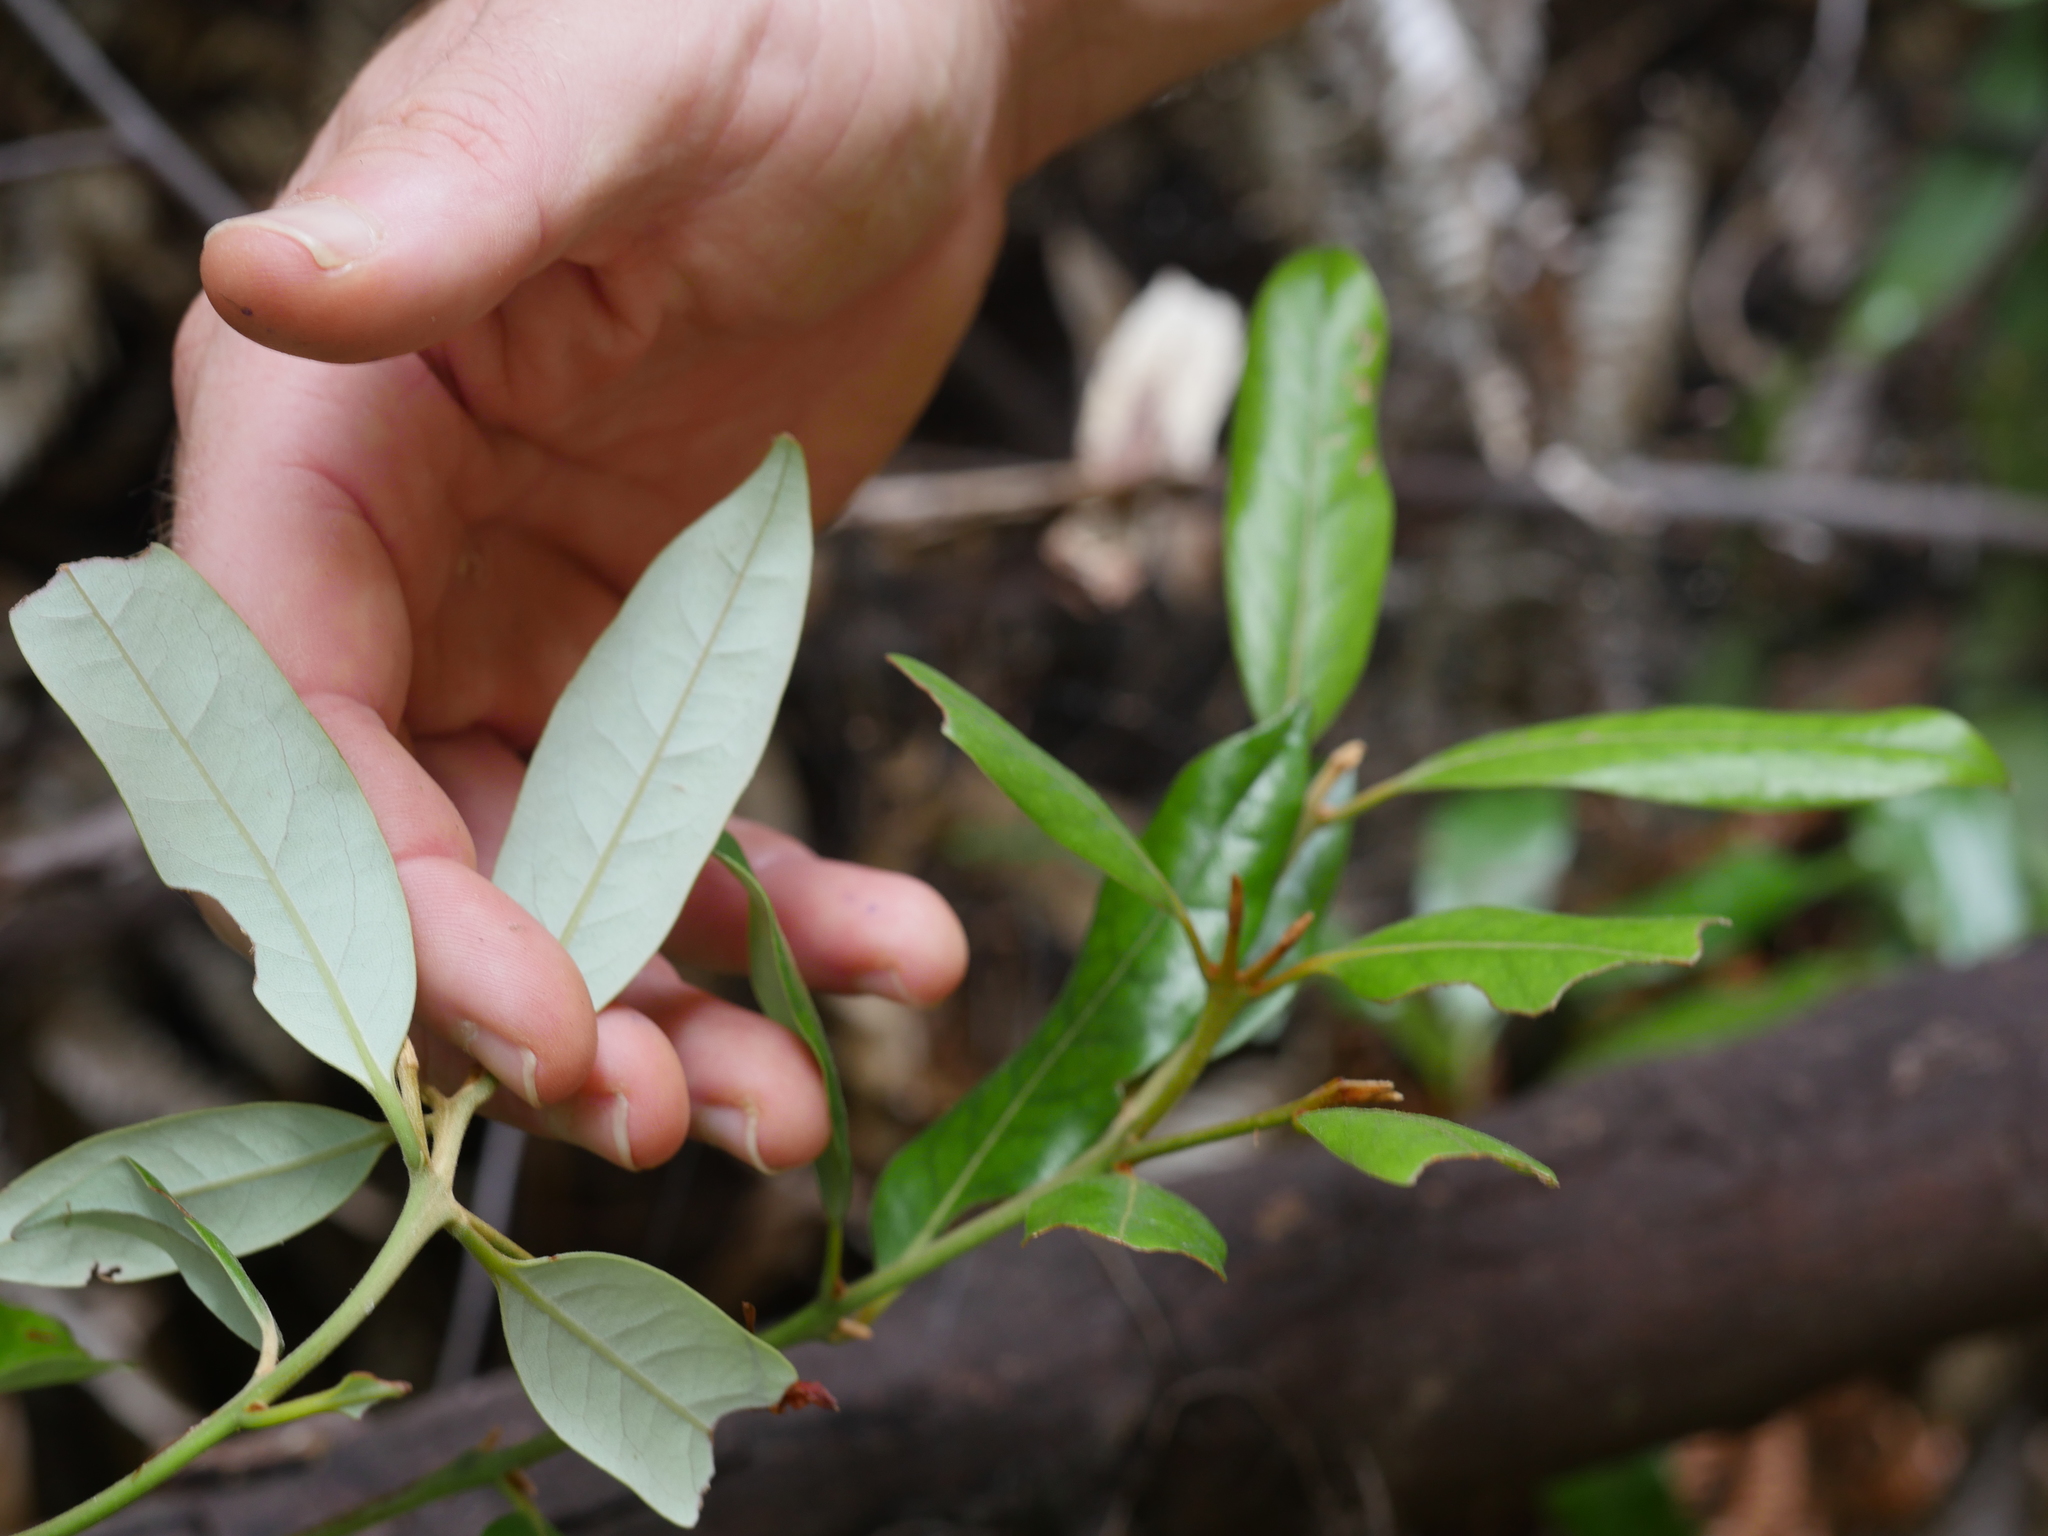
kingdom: Plantae
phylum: Tracheophyta
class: Magnoliopsida
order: Laurales
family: Lauraceae
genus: Beilschmiedia
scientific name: Beilschmiedia tawa
